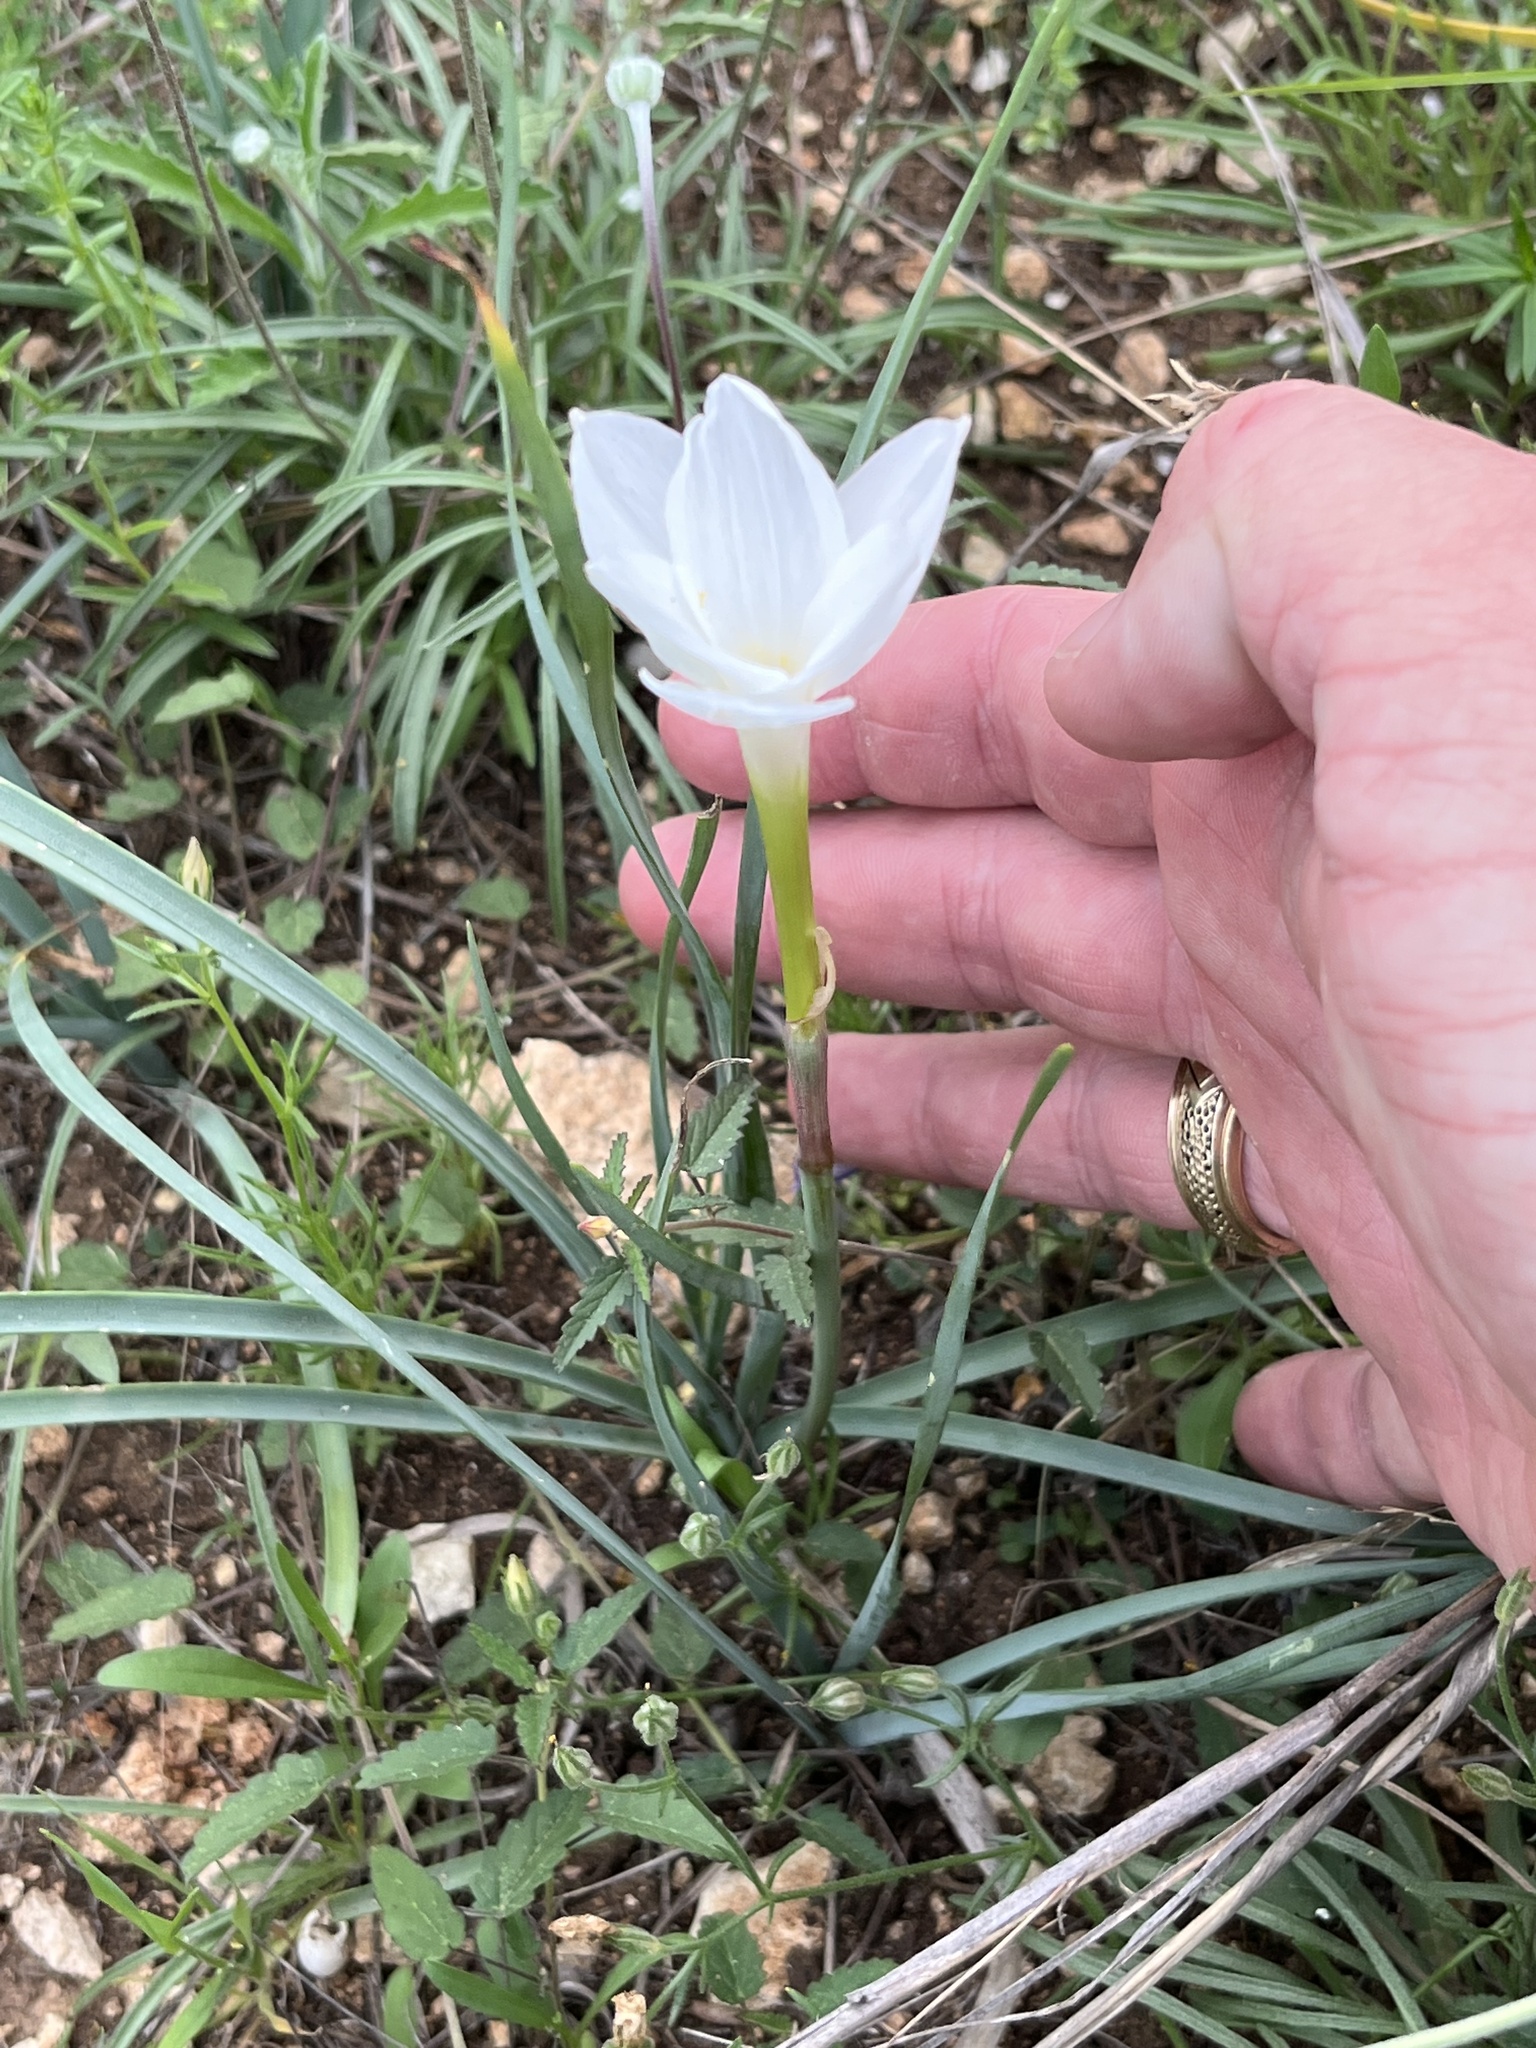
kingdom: Plantae
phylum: Tracheophyta
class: Liliopsida
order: Asparagales
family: Amaryllidaceae
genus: Zephyranthes
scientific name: Zephyranthes drummondii
